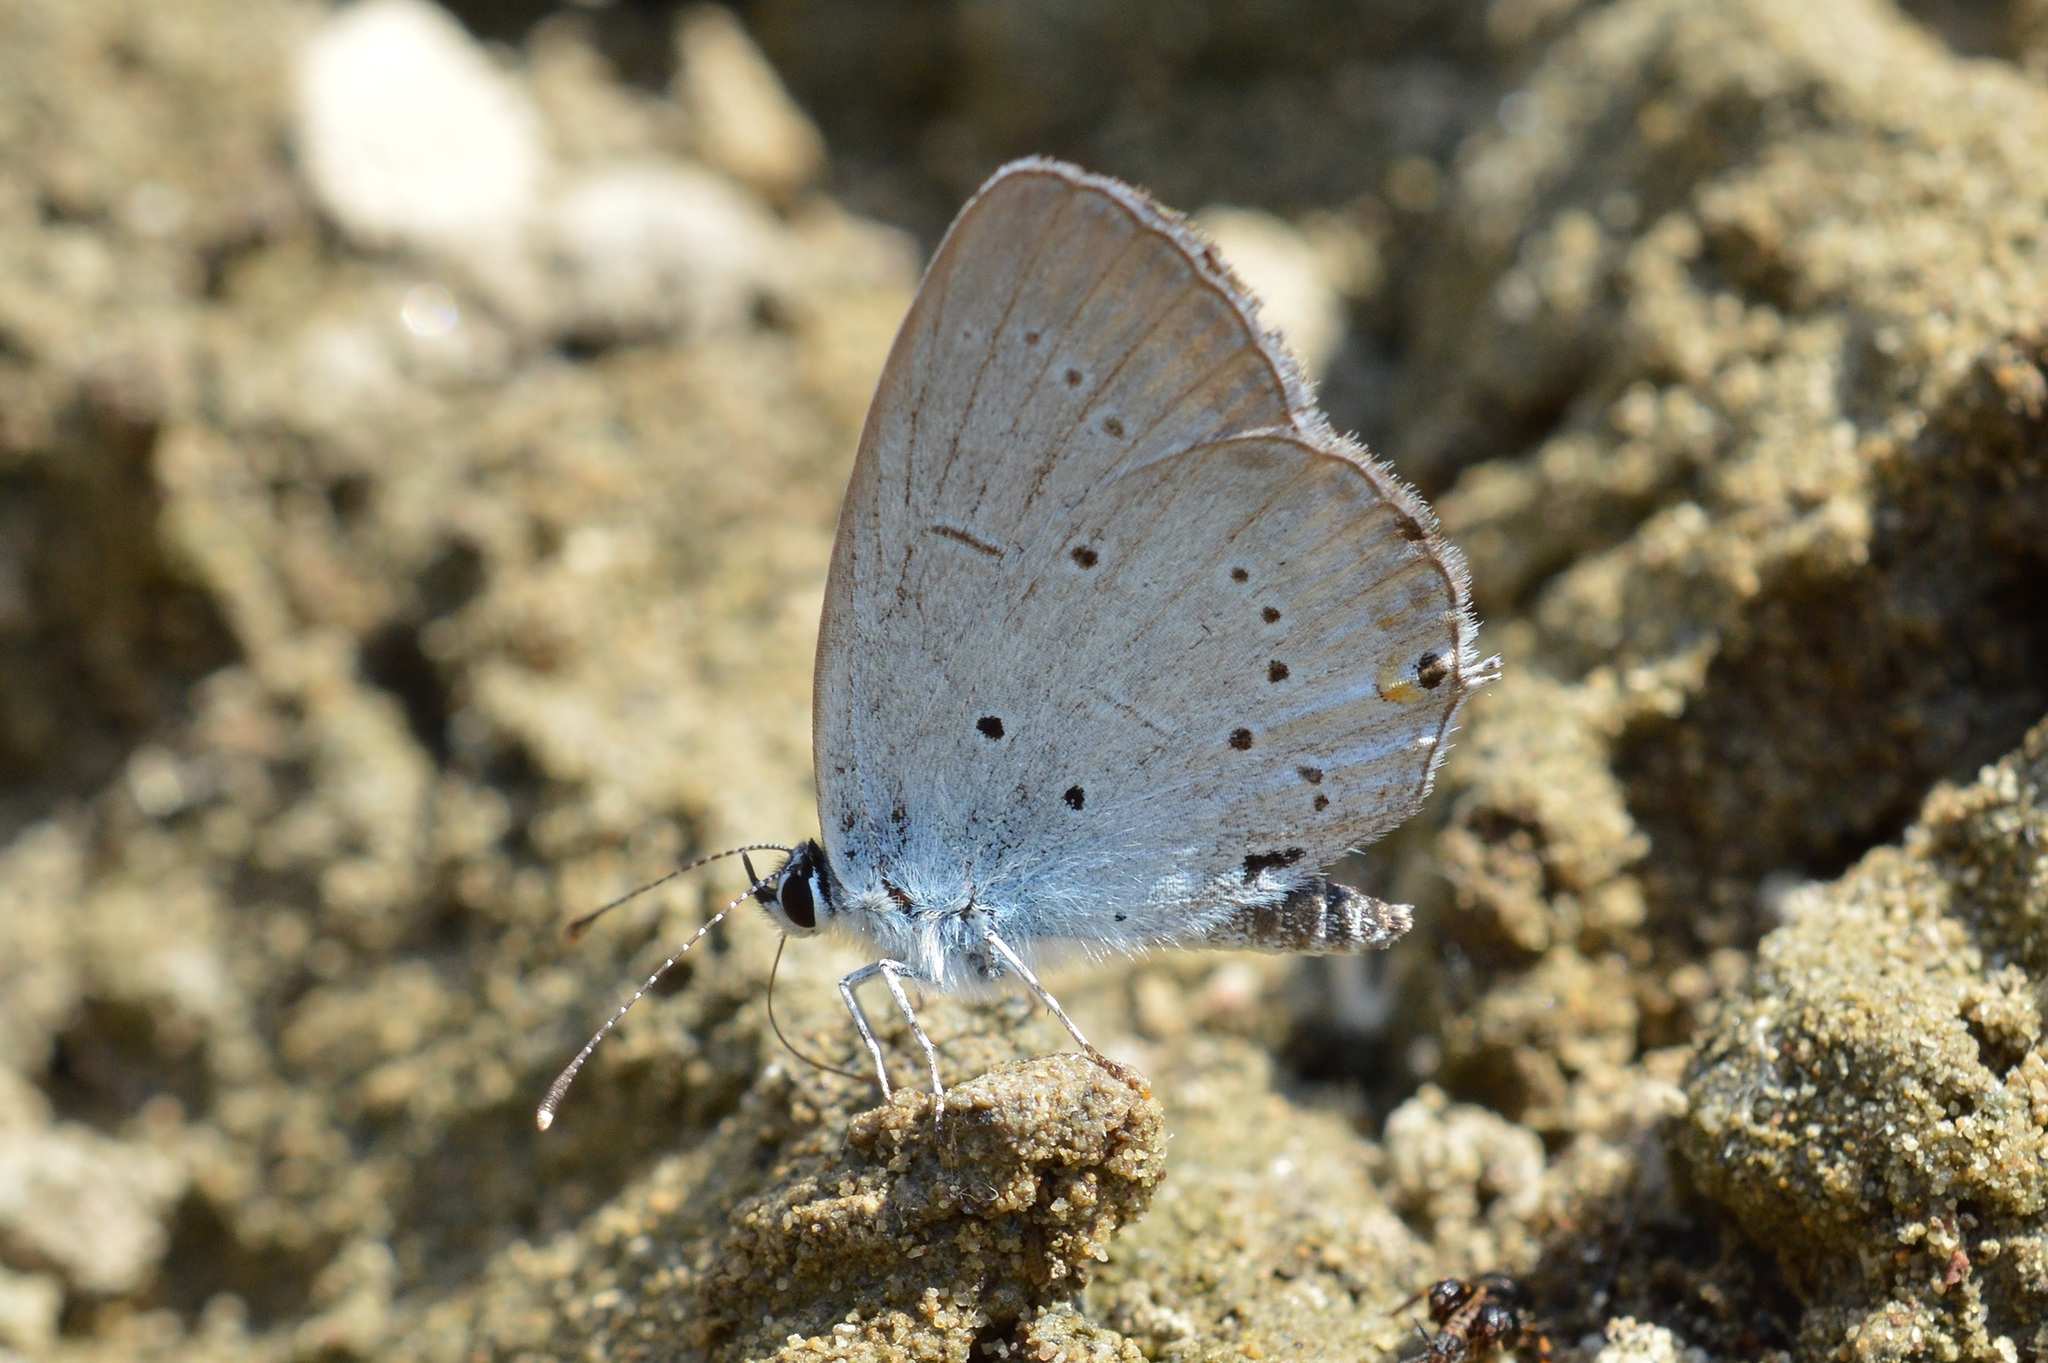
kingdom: Animalia
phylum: Arthropoda
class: Insecta
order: Lepidoptera
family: Lycaenidae
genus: Elkalyce
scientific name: Elkalyce alcetas
